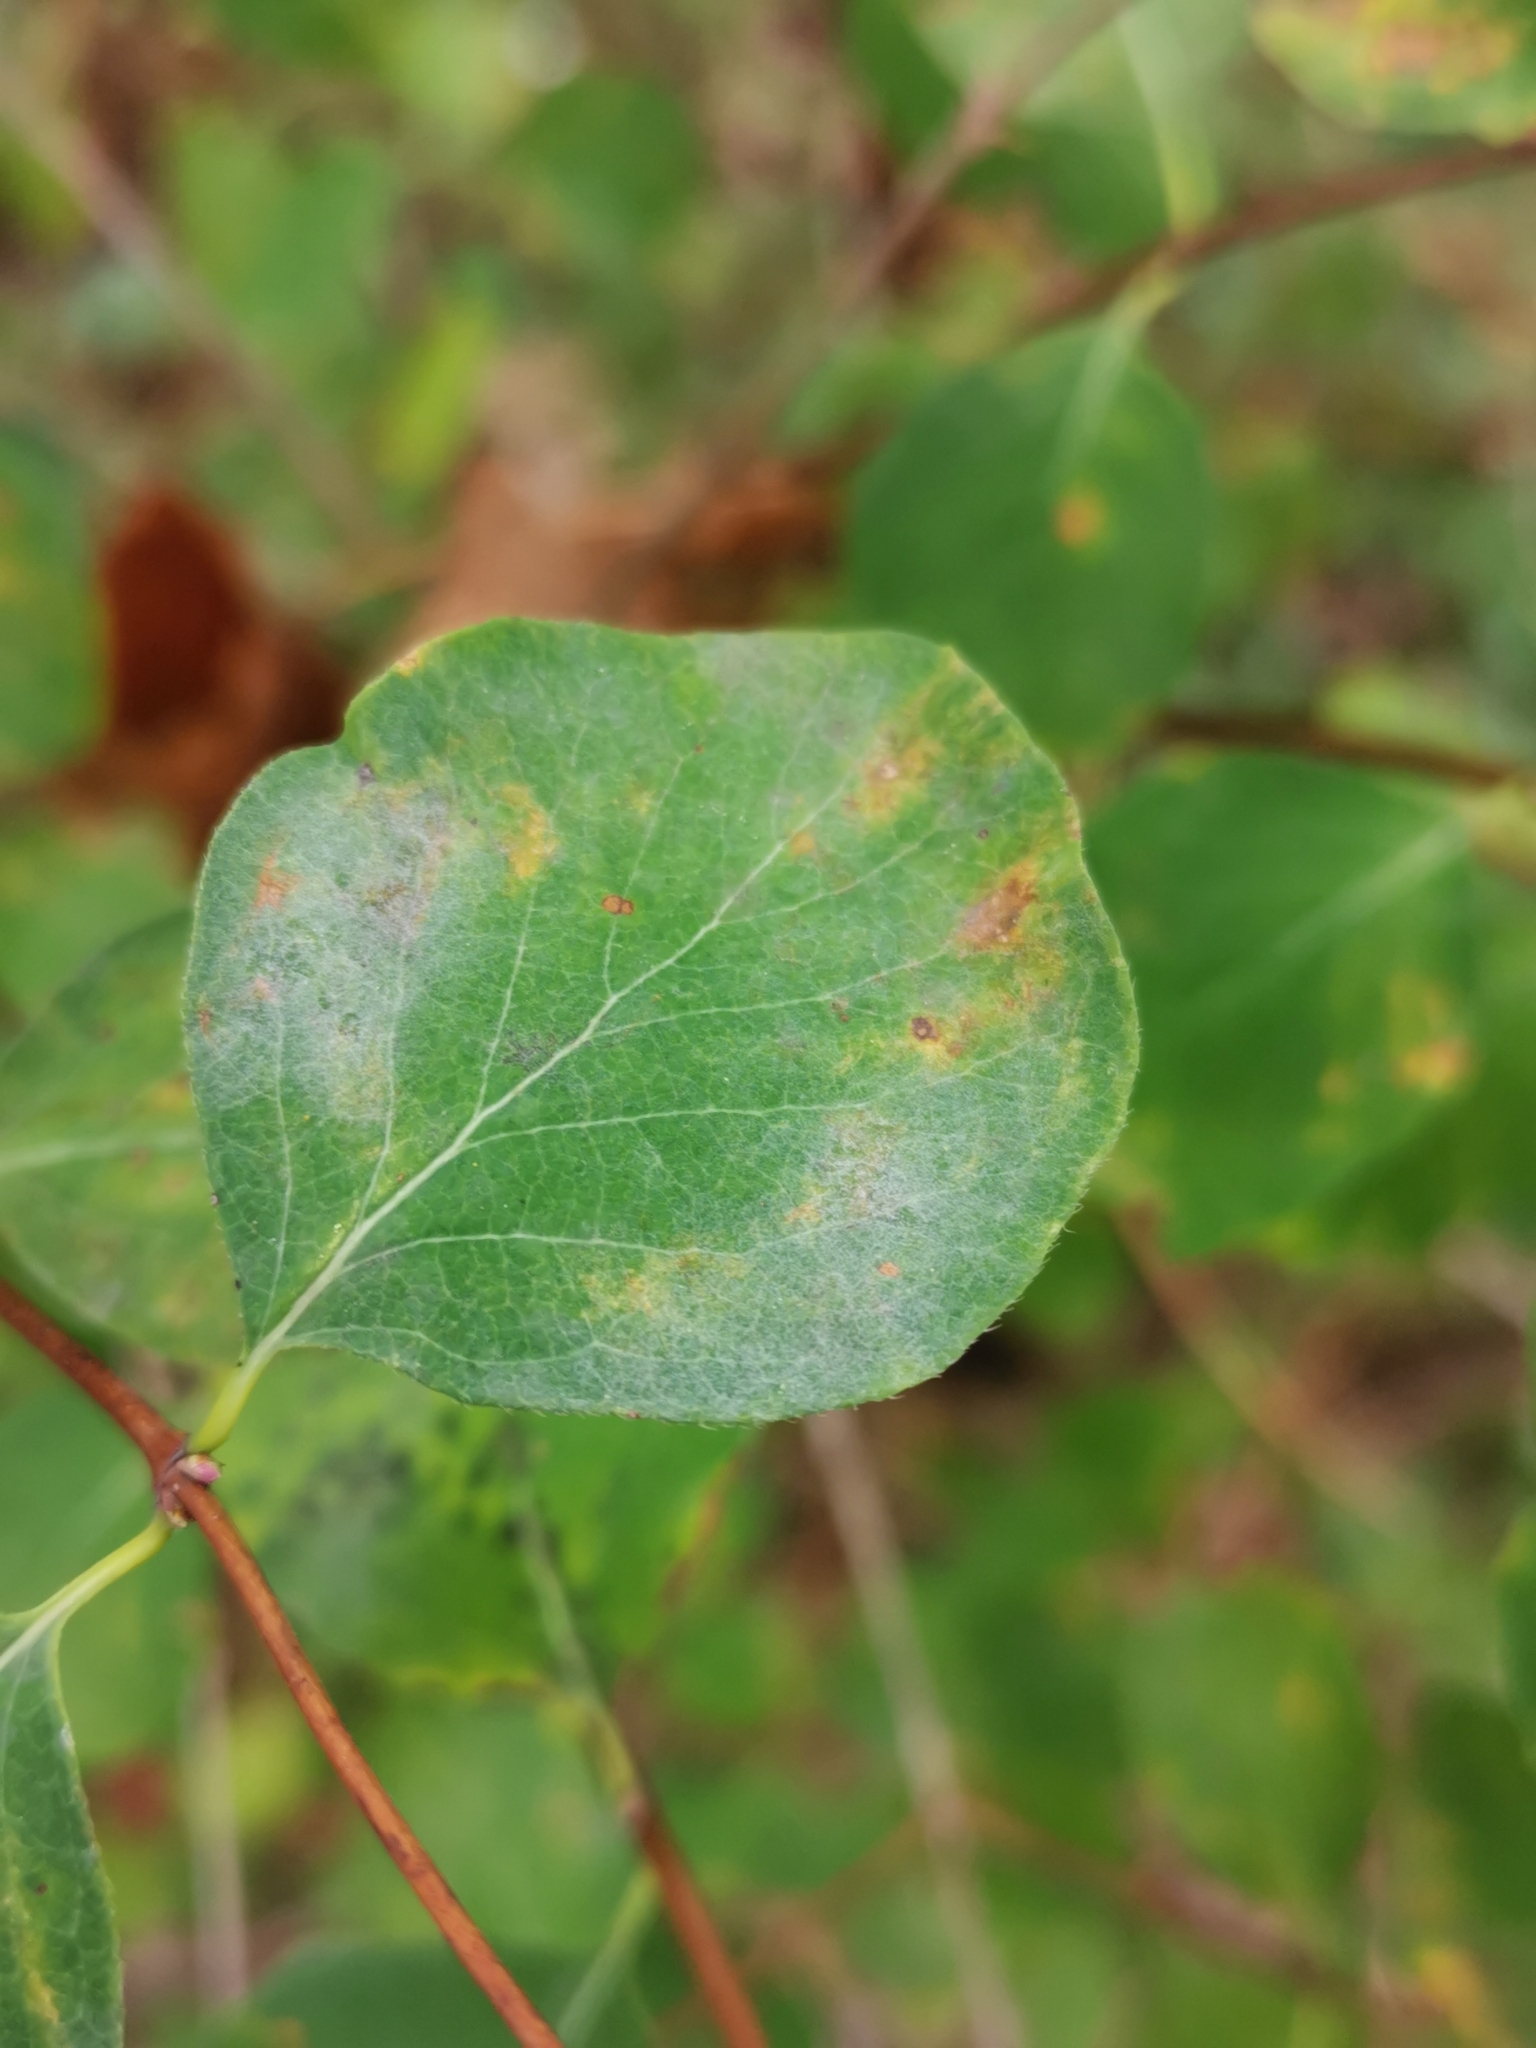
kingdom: Fungi
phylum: Ascomycota
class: Leotiomycetes
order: Helotiales
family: Erysiphaceae
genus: Erysiphe
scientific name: Erysiphe symphoricarpi
